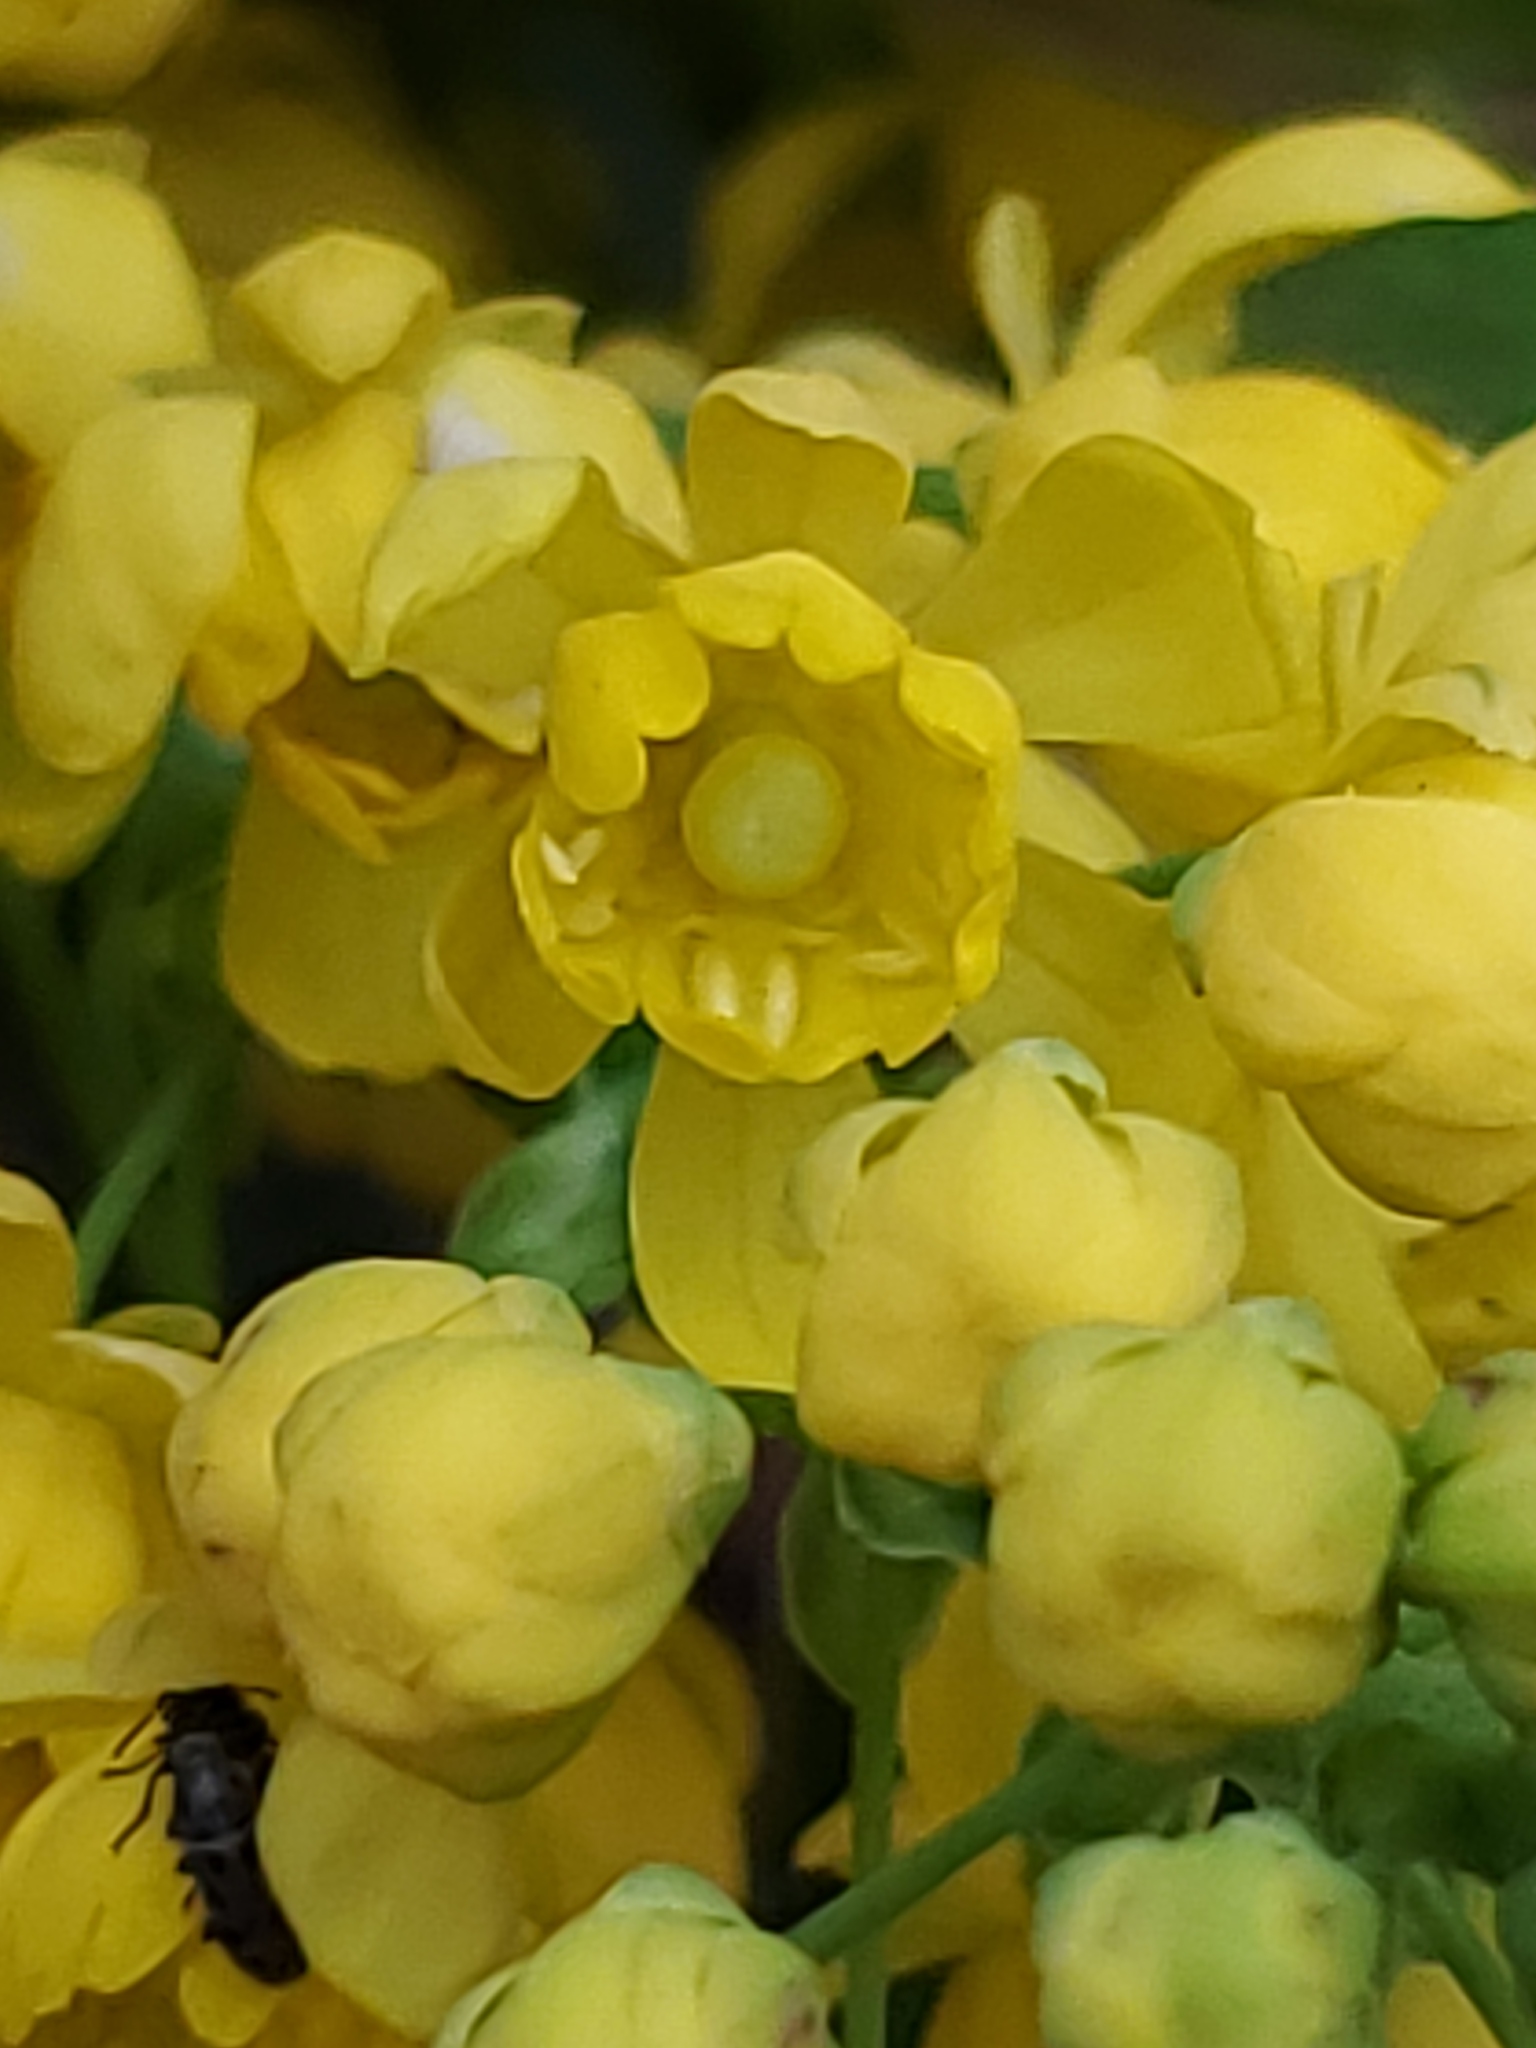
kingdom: Plantae
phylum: Tracheophyta
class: Magnoliopsida
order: Ranunculales
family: Berberidaceae
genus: Mahonia
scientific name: Mahonia repens
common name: Creeping oregon-grape
